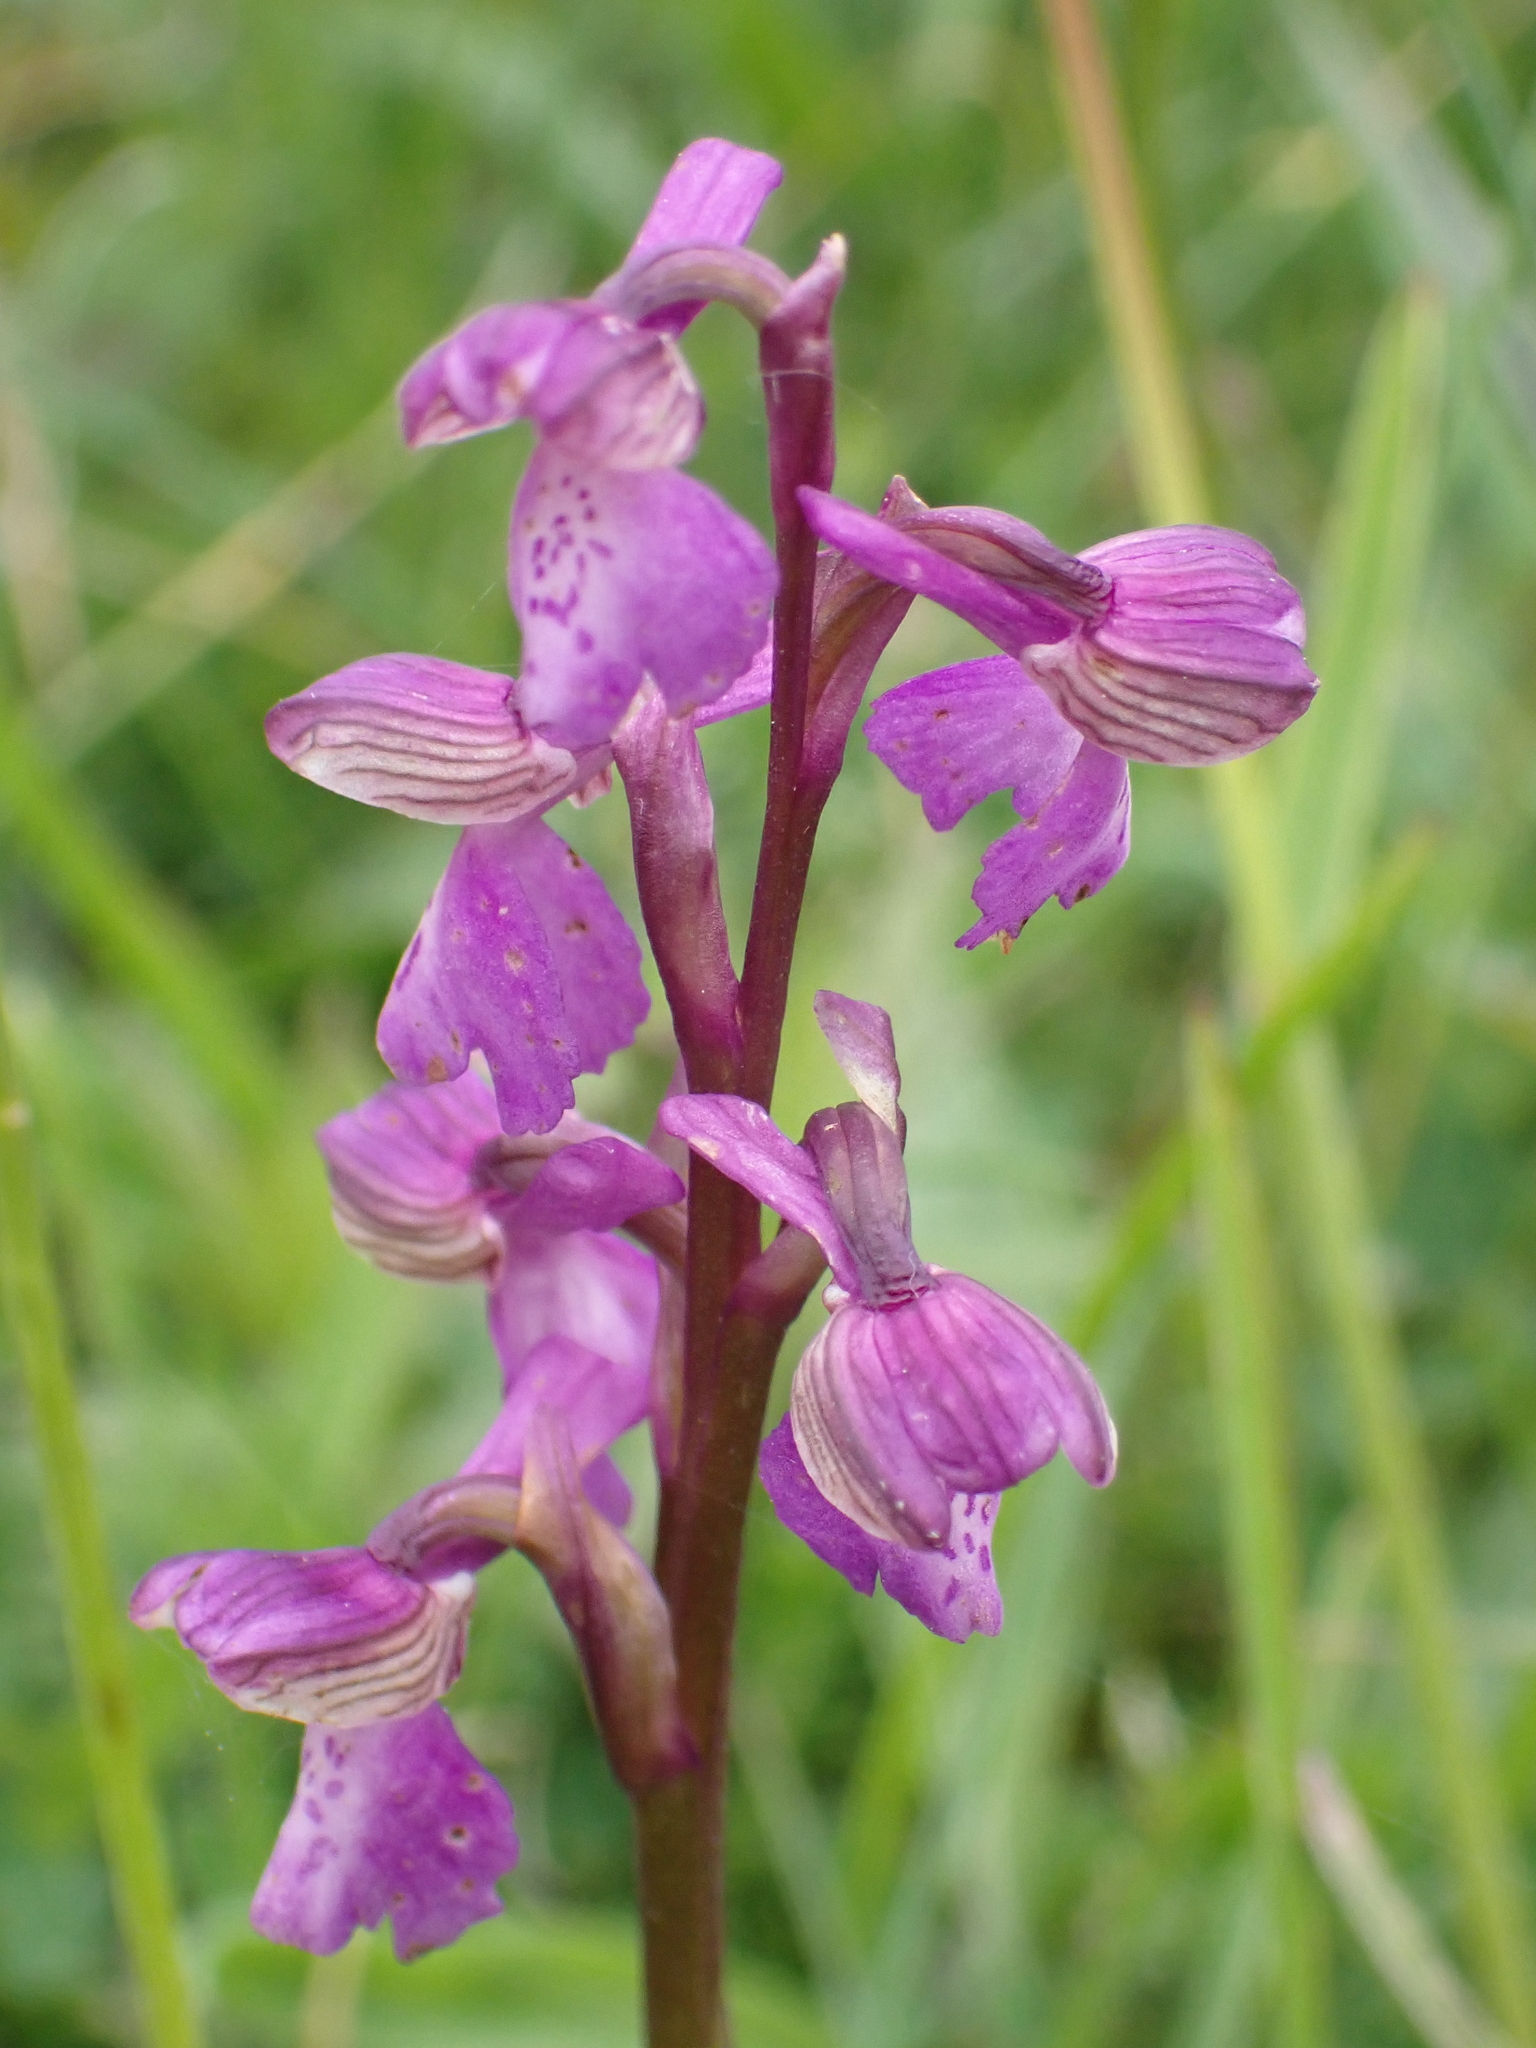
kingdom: Plantae
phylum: Tracheophyta
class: Liliopsida
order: Asparagales
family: Orchidaceae
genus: Anacamptis
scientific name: Anacamptis morio
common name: Green-winged orchid
